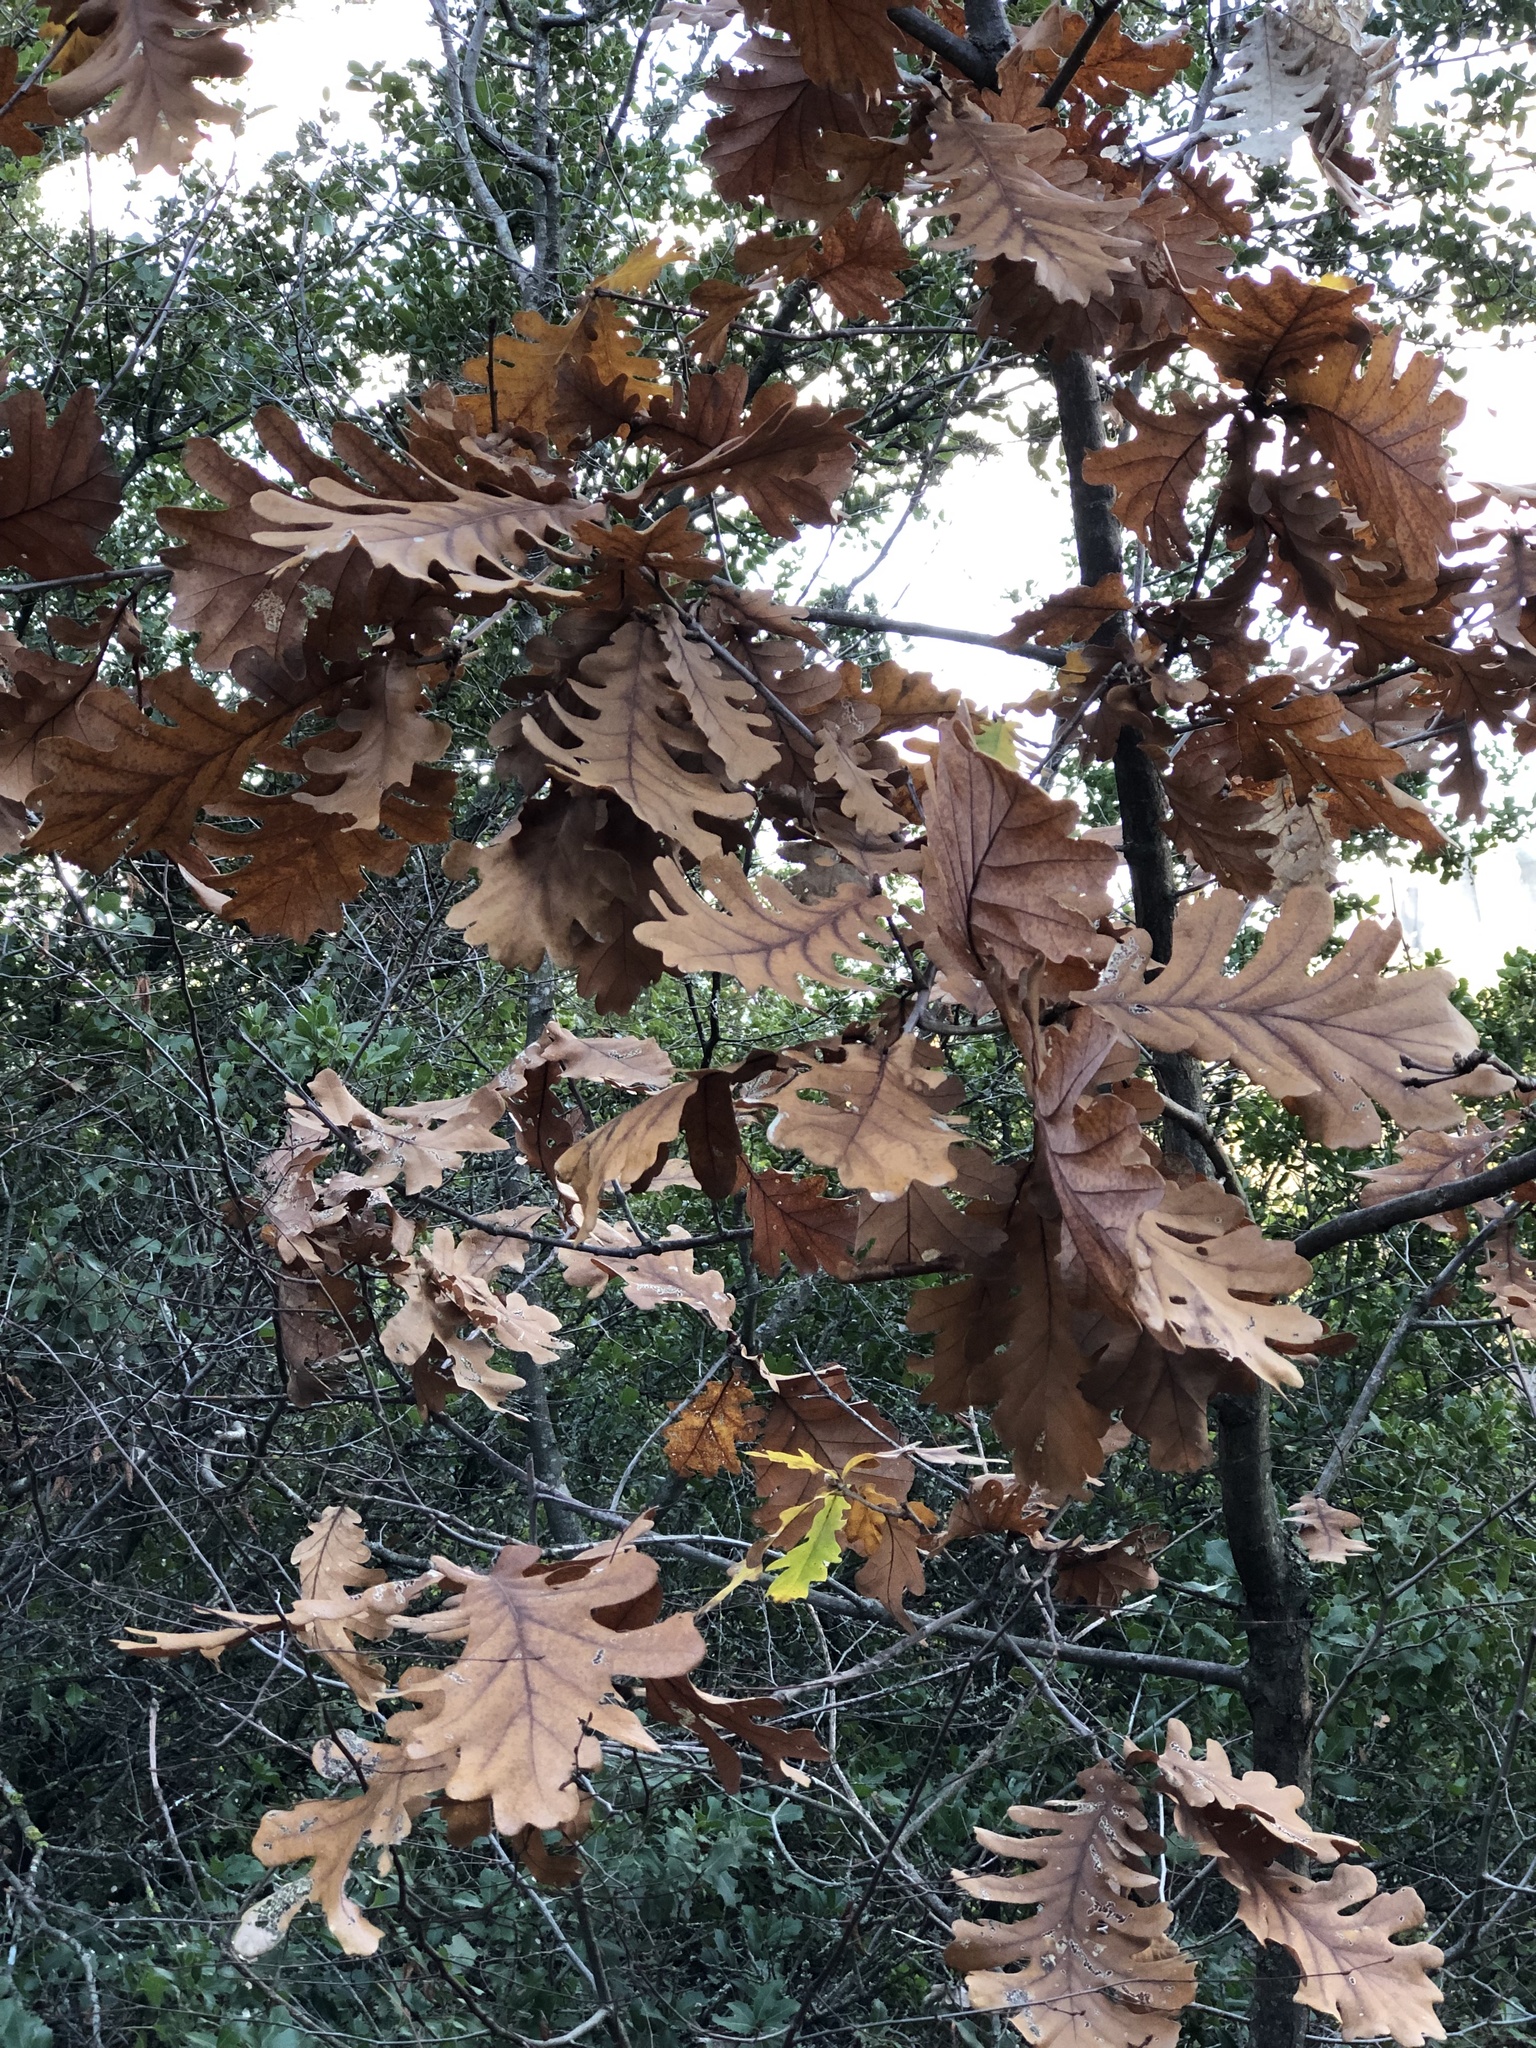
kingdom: Plantae
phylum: Tracheophyta
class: Magnoliopsida
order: Fagales
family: Fagaceae
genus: Quercus
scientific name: Quercus conferta
